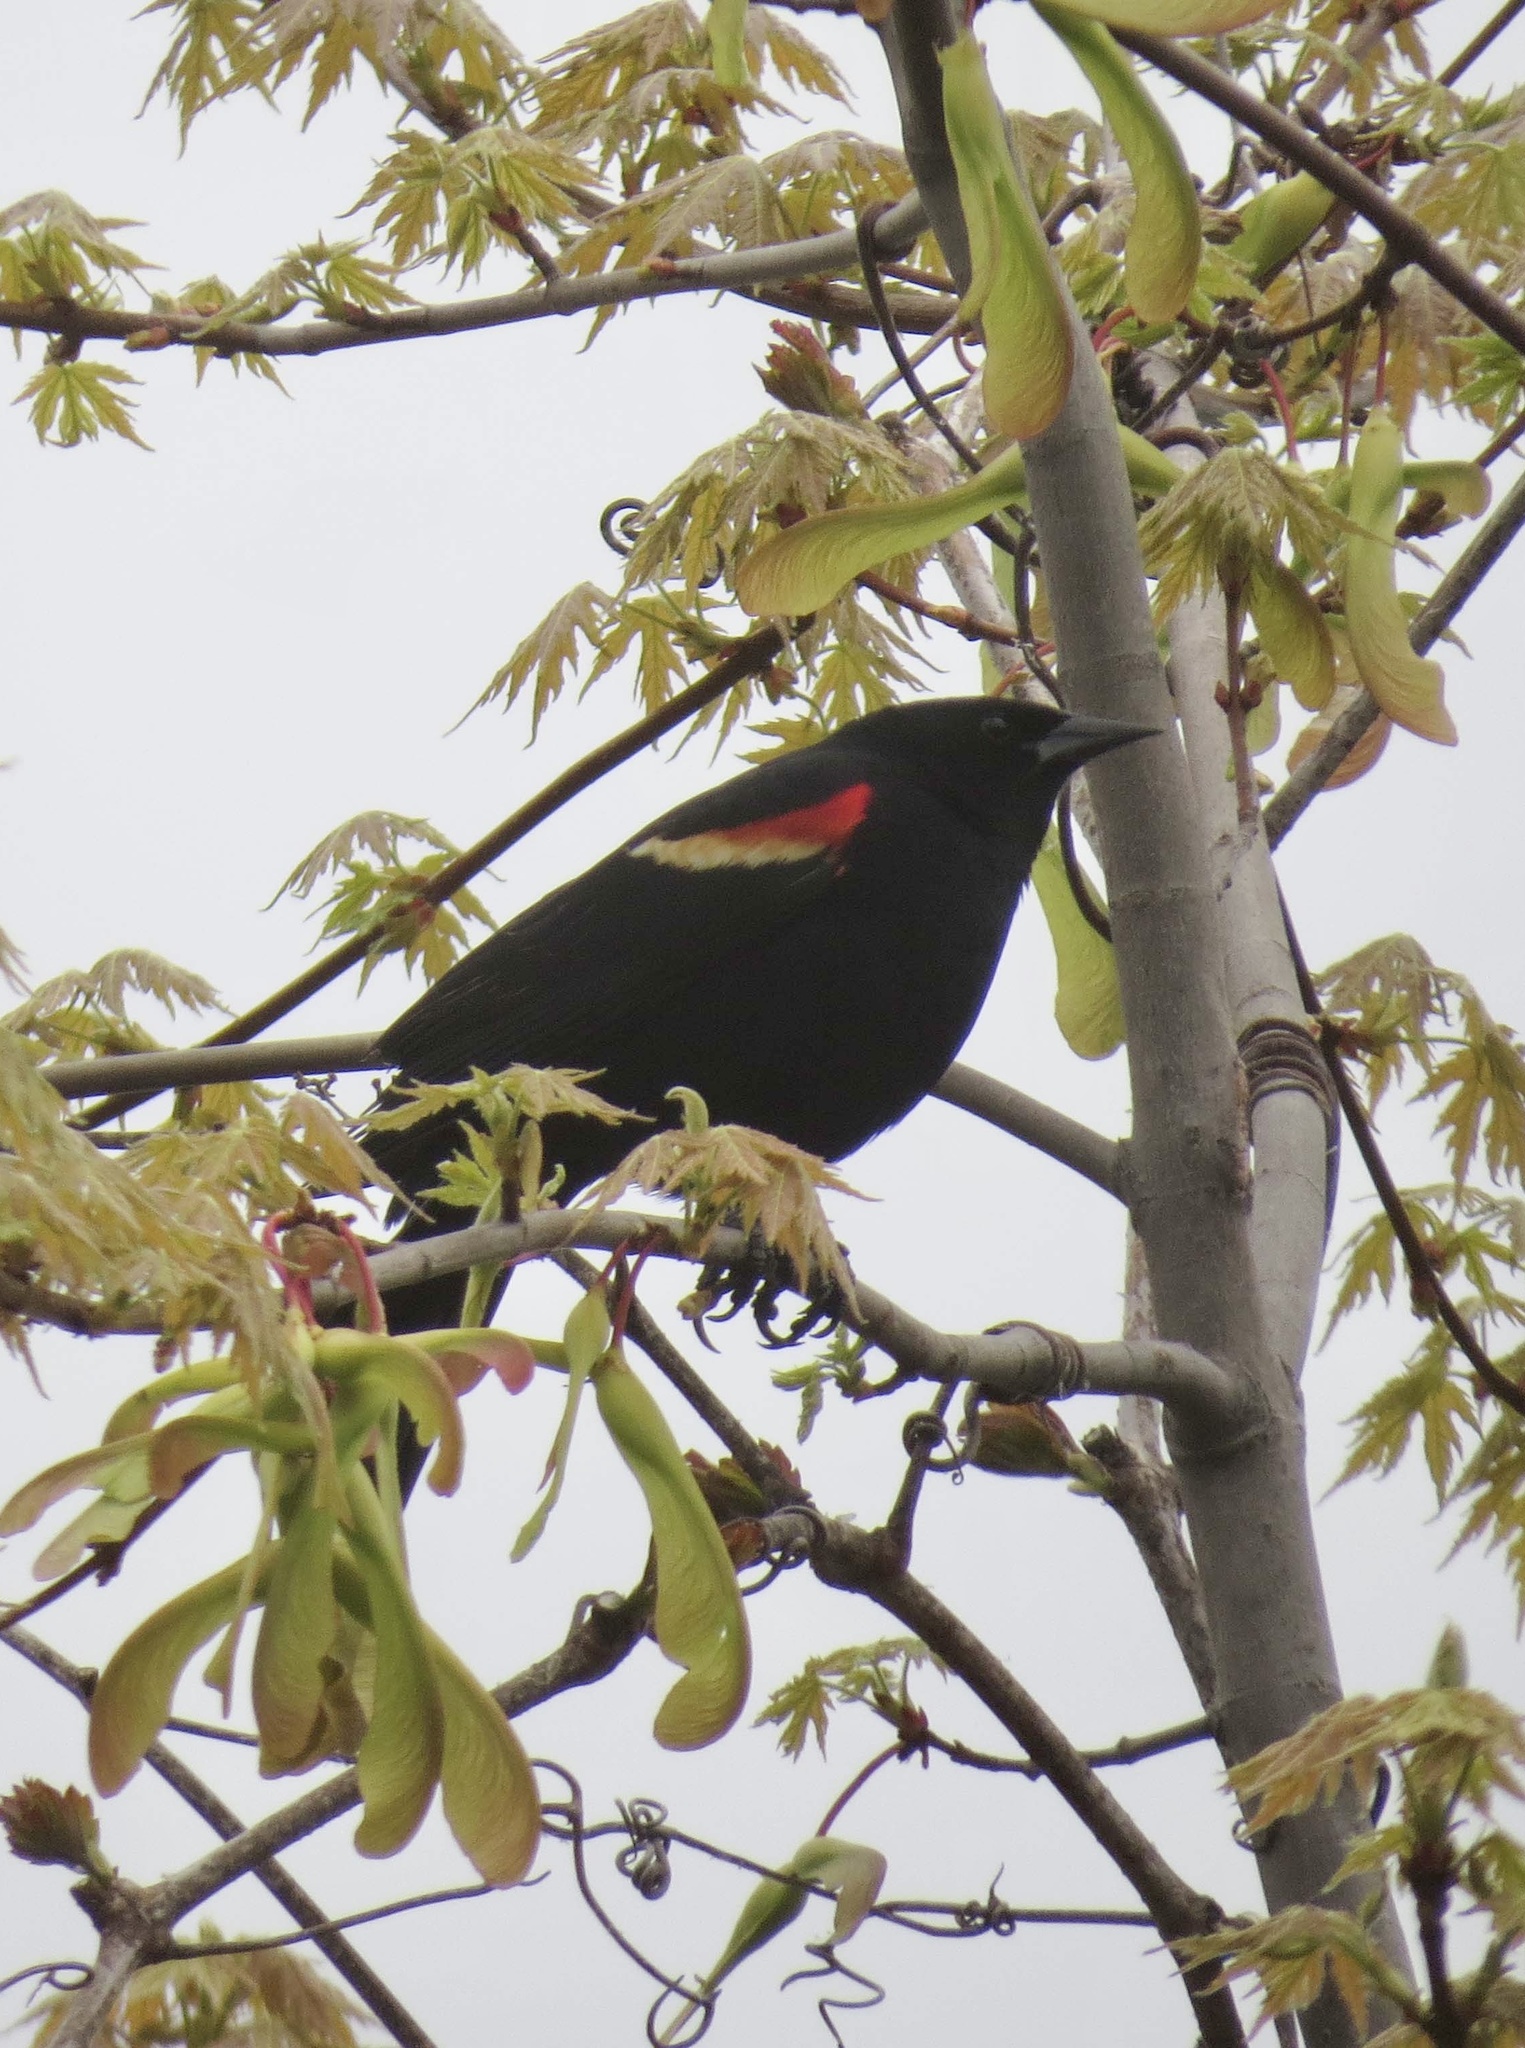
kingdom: Animalia
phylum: Chordata
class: Aves
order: Passeriformes
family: Icteridae
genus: Agelaius
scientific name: Agelaius phoeniceus
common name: Red-winged blackbird
